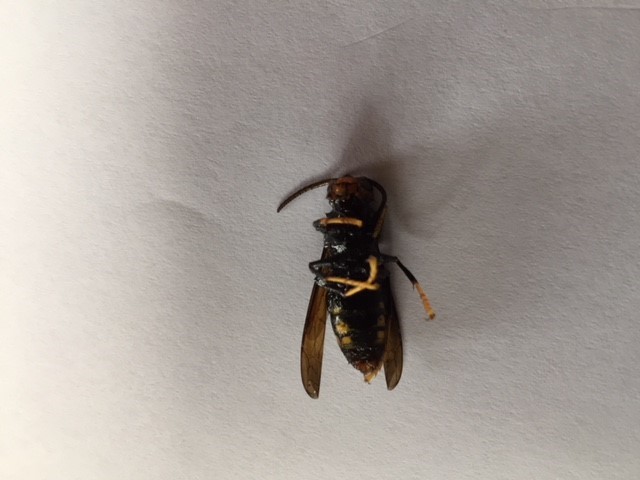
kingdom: Animalia
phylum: Arthropoda
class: Insecta
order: Hymenoptera
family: Vespidae
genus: Vespa
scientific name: Vespa velutina
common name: Asian hornet
